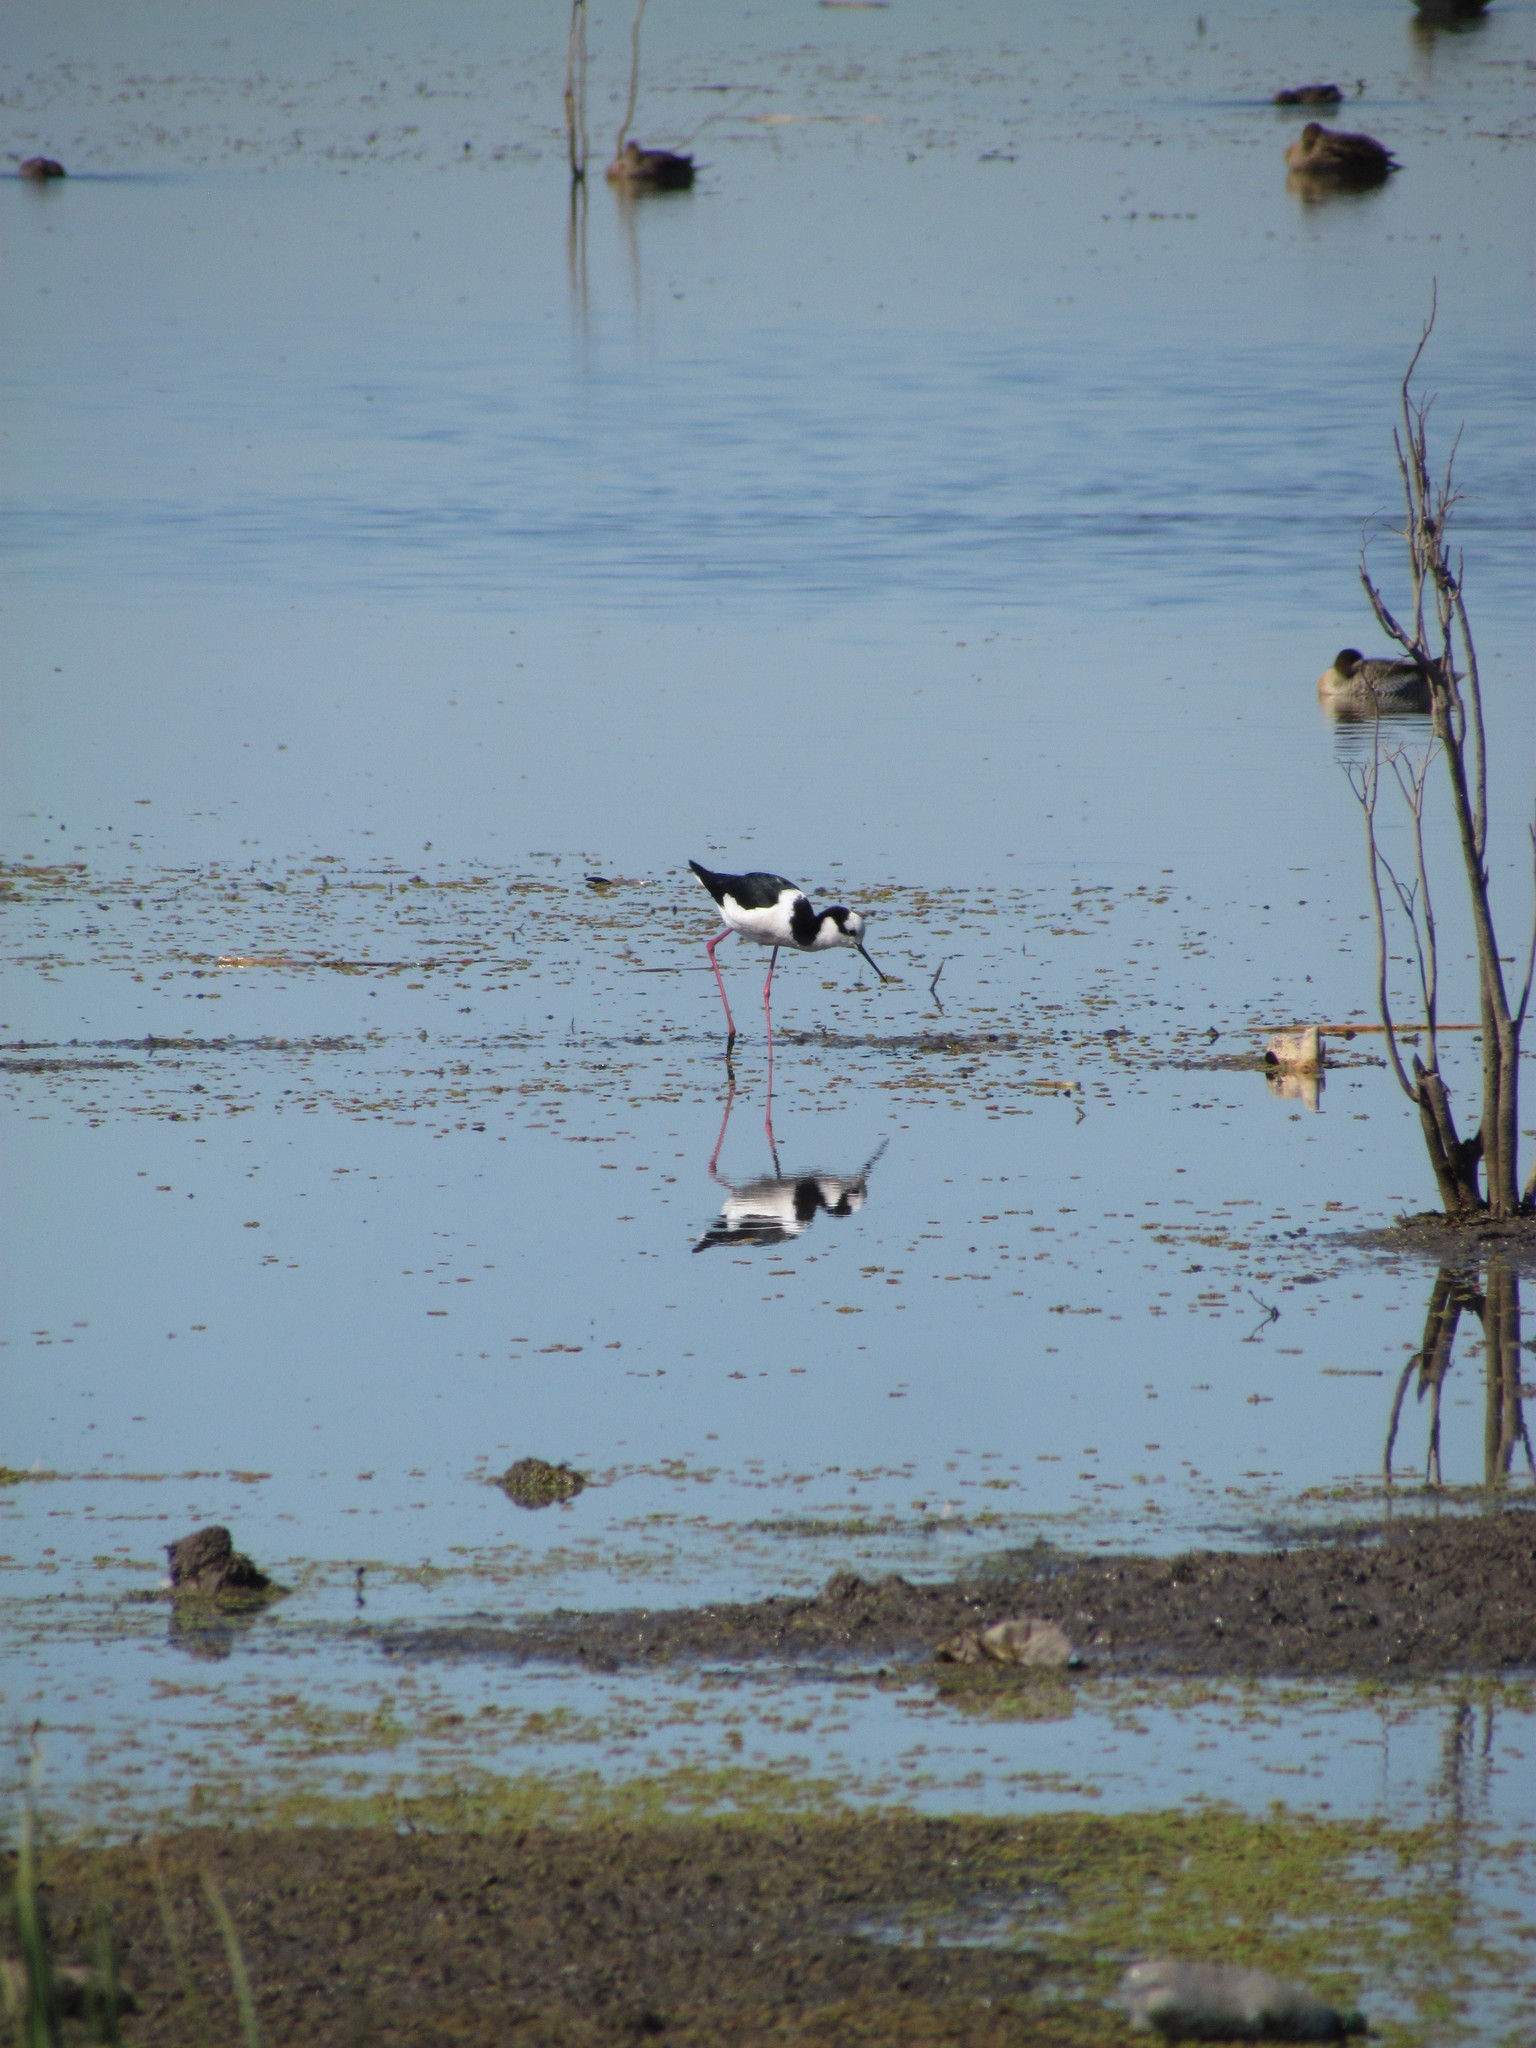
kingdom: Animalia
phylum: Chordata
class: Aves
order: Charadriiformes
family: Recurvirostridae
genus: Himantopus
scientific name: Himantopus mexicanus
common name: Black-necked stilt
